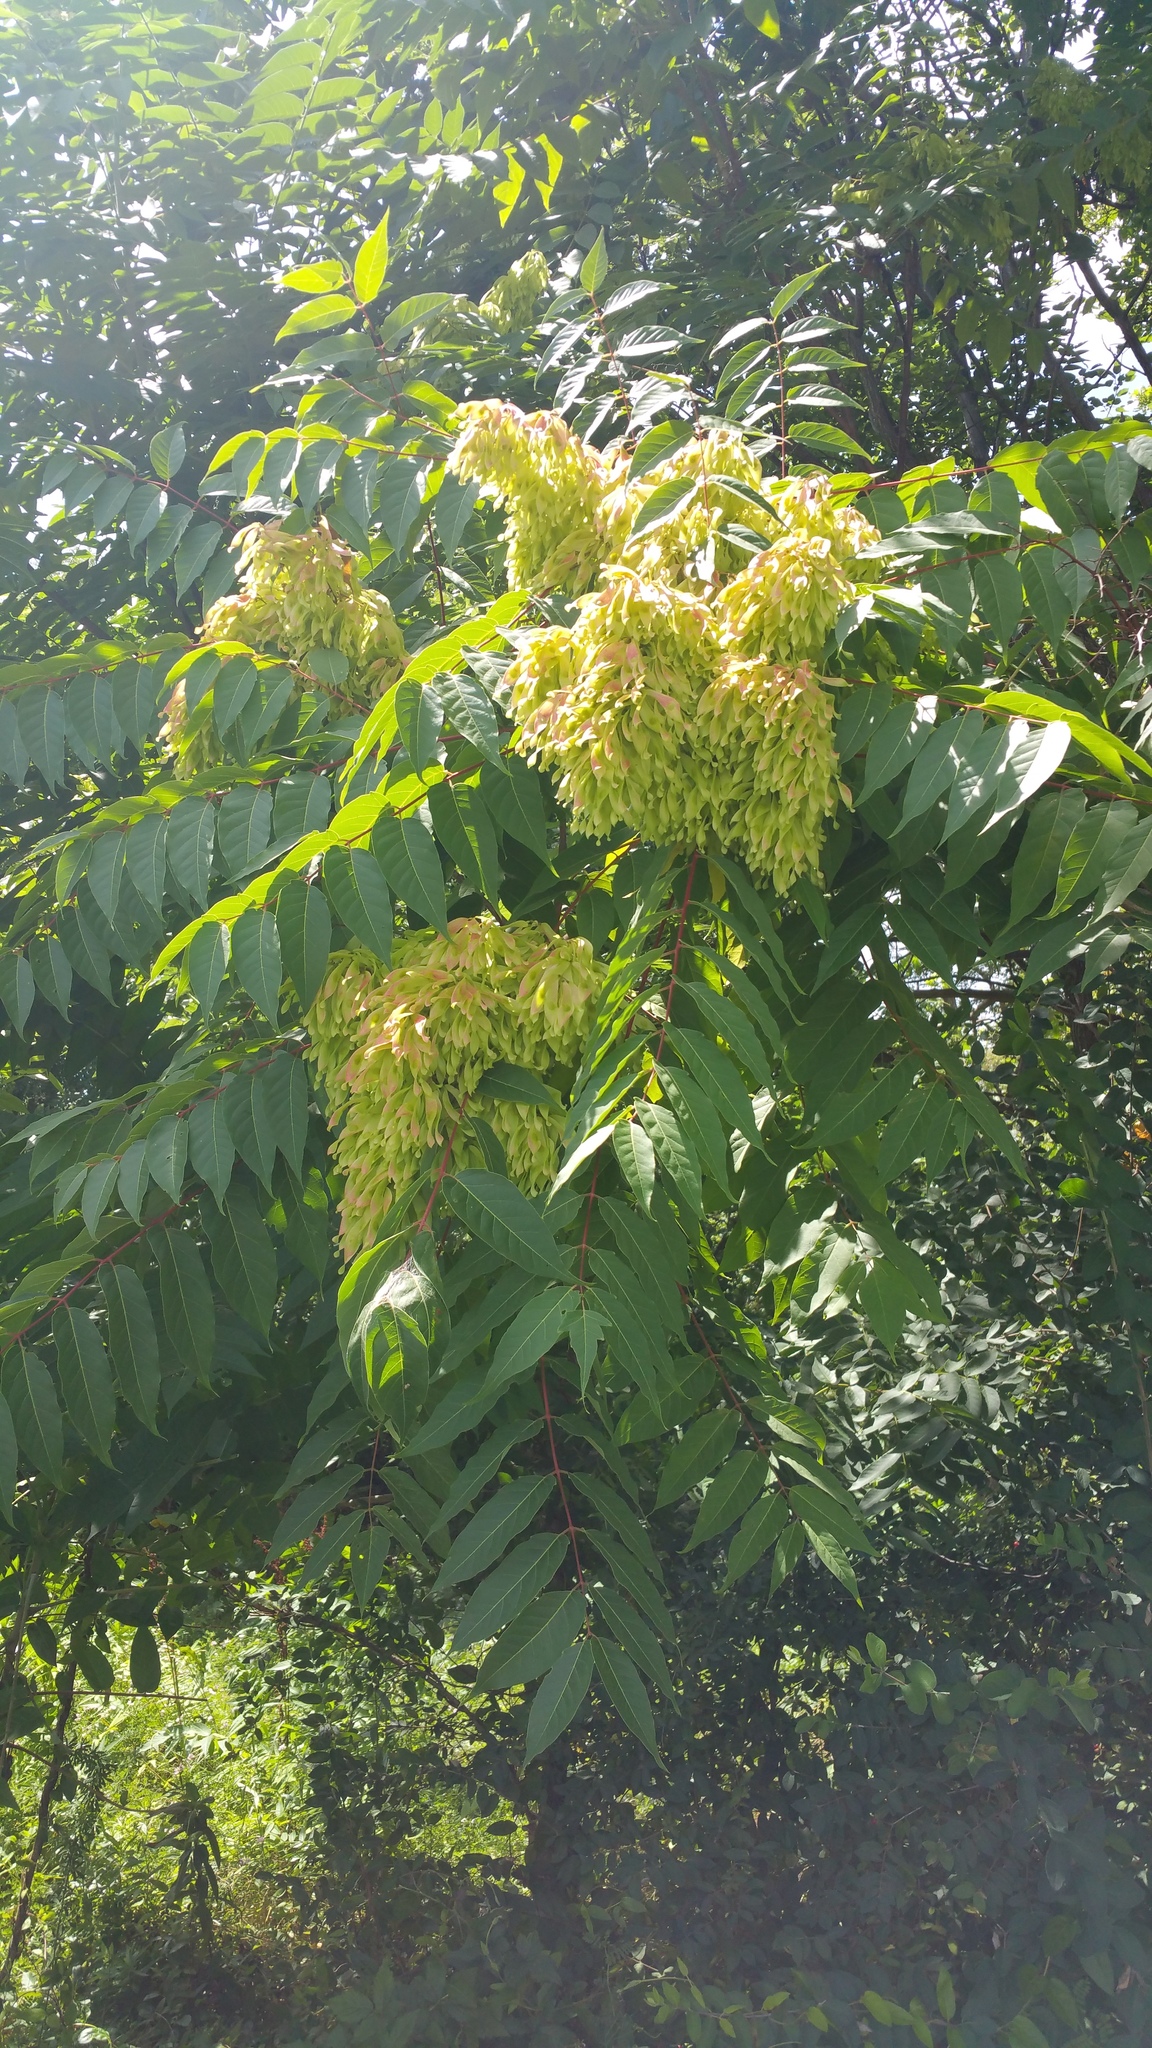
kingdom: Plantae
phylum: Tracheophyta
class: Magnoliopsida
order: Sapindales
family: Simaroubaceae
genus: Ailanthus
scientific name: Ailanthus altissima
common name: Tree-of-heaven
